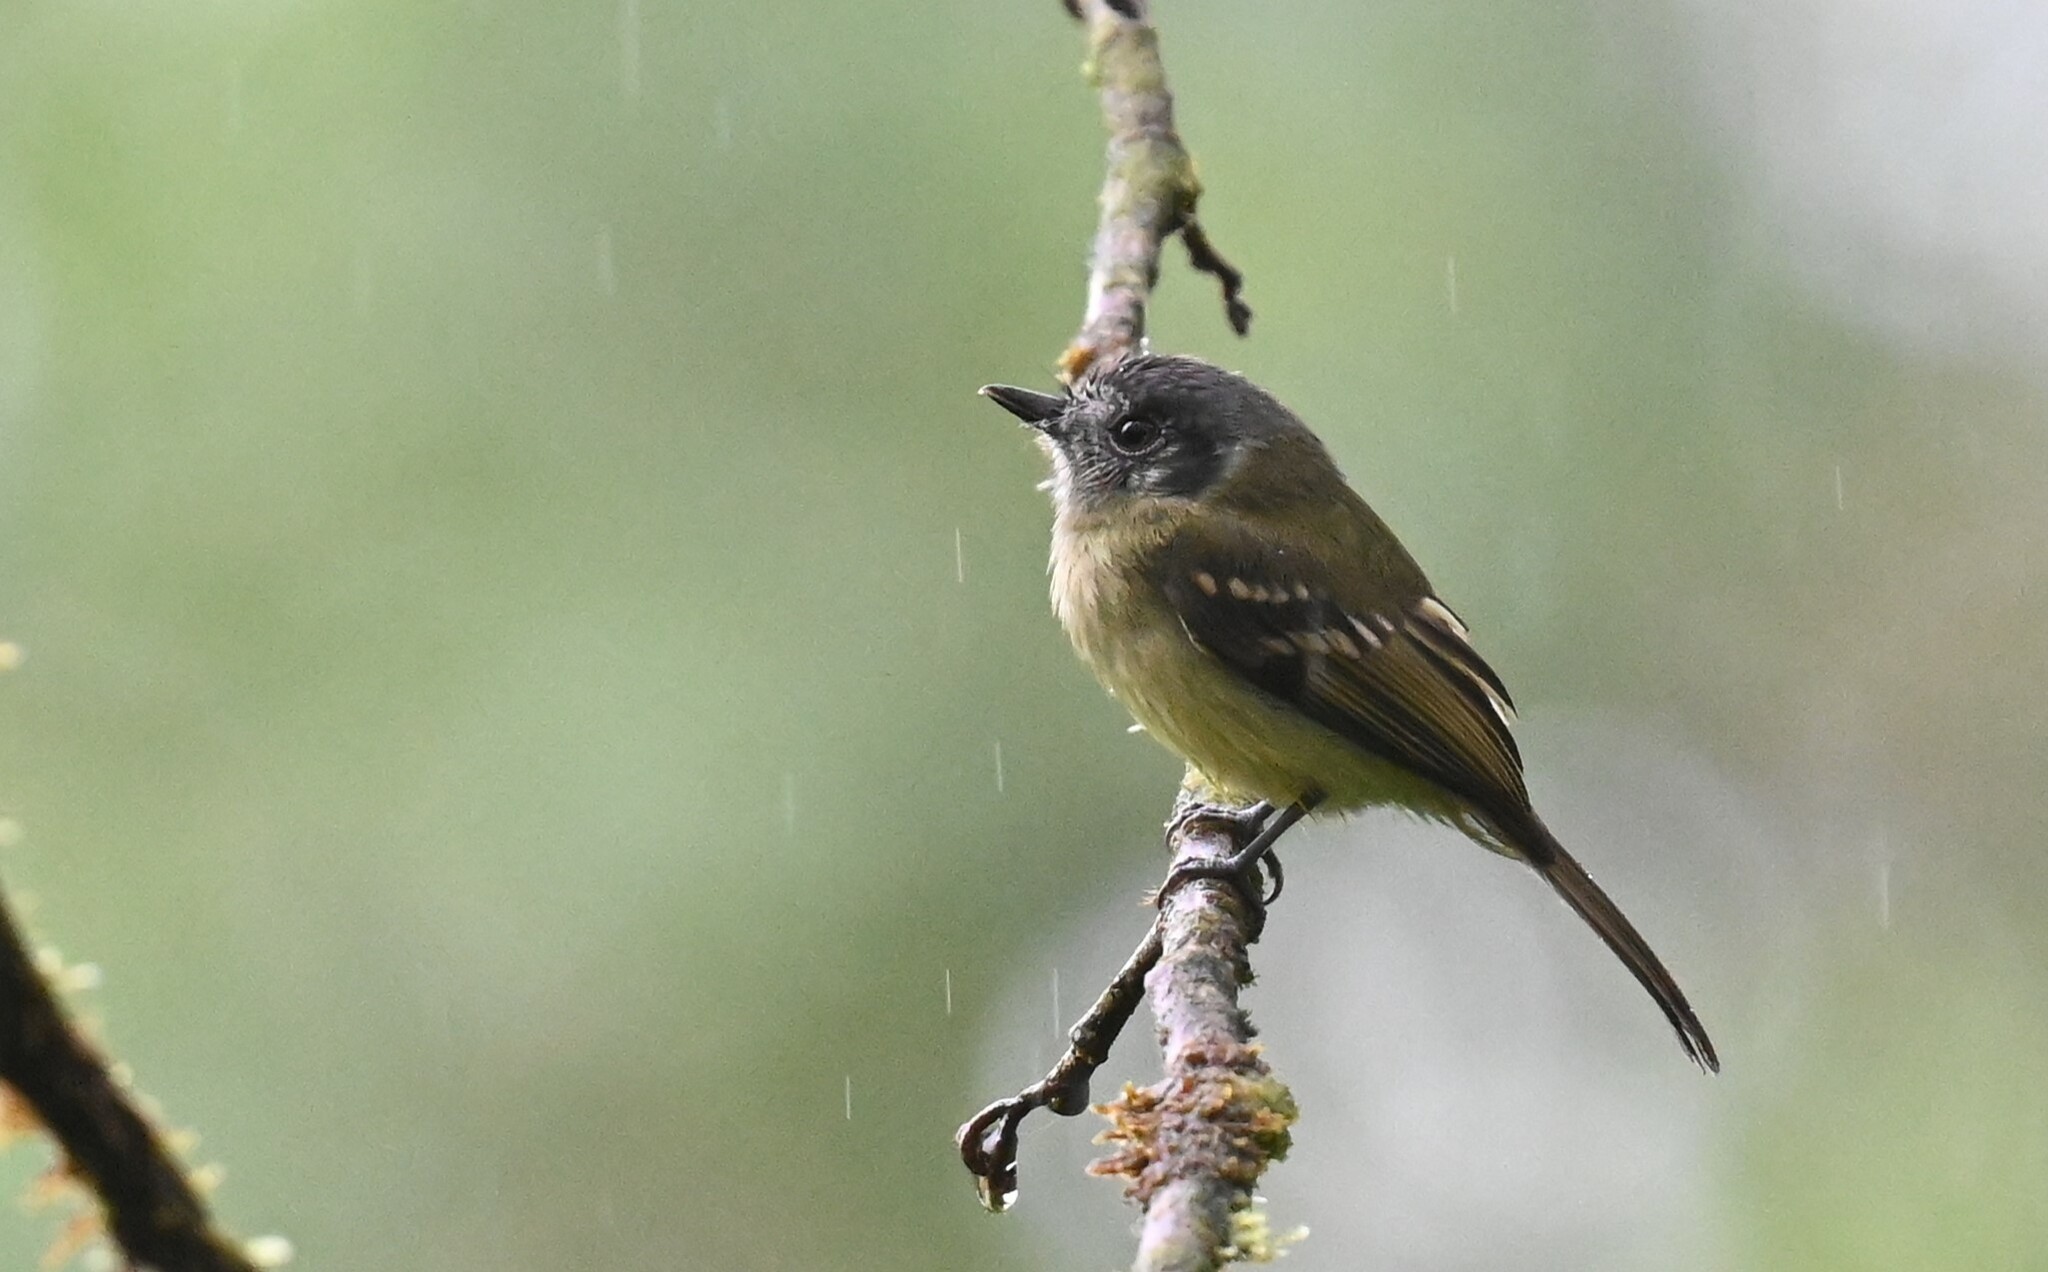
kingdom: Animalia
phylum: Chordata
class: Aves
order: Passeriformes
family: Tyrannidae
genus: Leptopogon
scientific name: Leptopogon superciliaris
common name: Slaty-capped flycatcher
